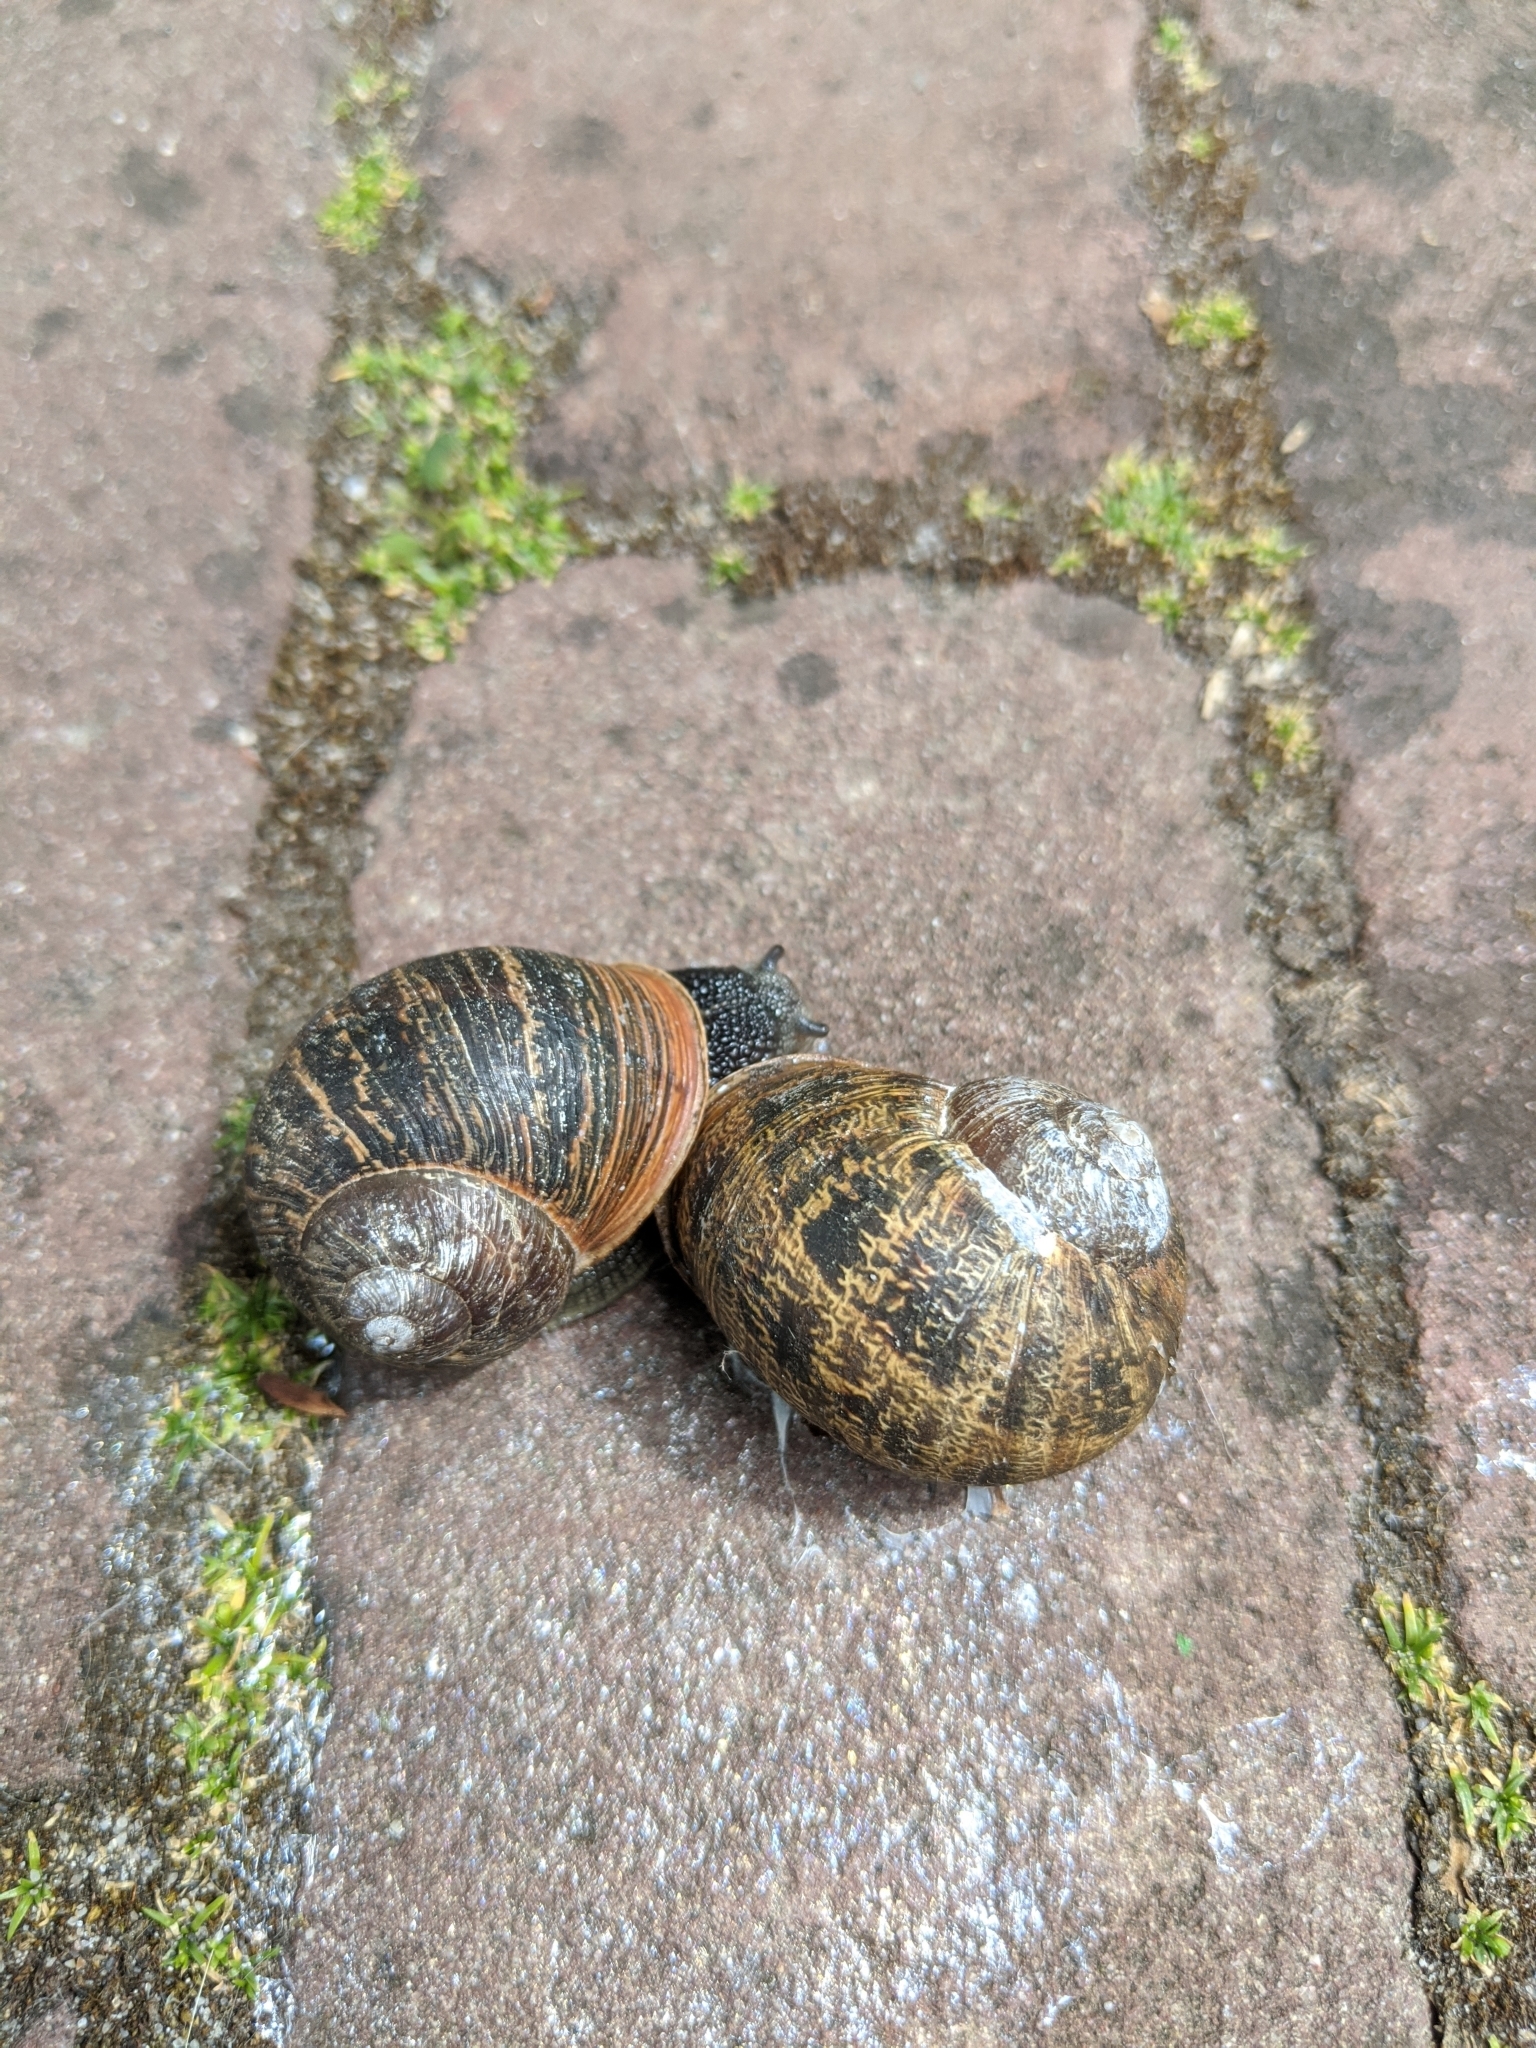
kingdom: Animalia
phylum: Mollusca
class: Gastropoda
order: Stylommatophora
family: Helicidae
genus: Cornu
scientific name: Cornu aspersum
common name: Brown garden snail
